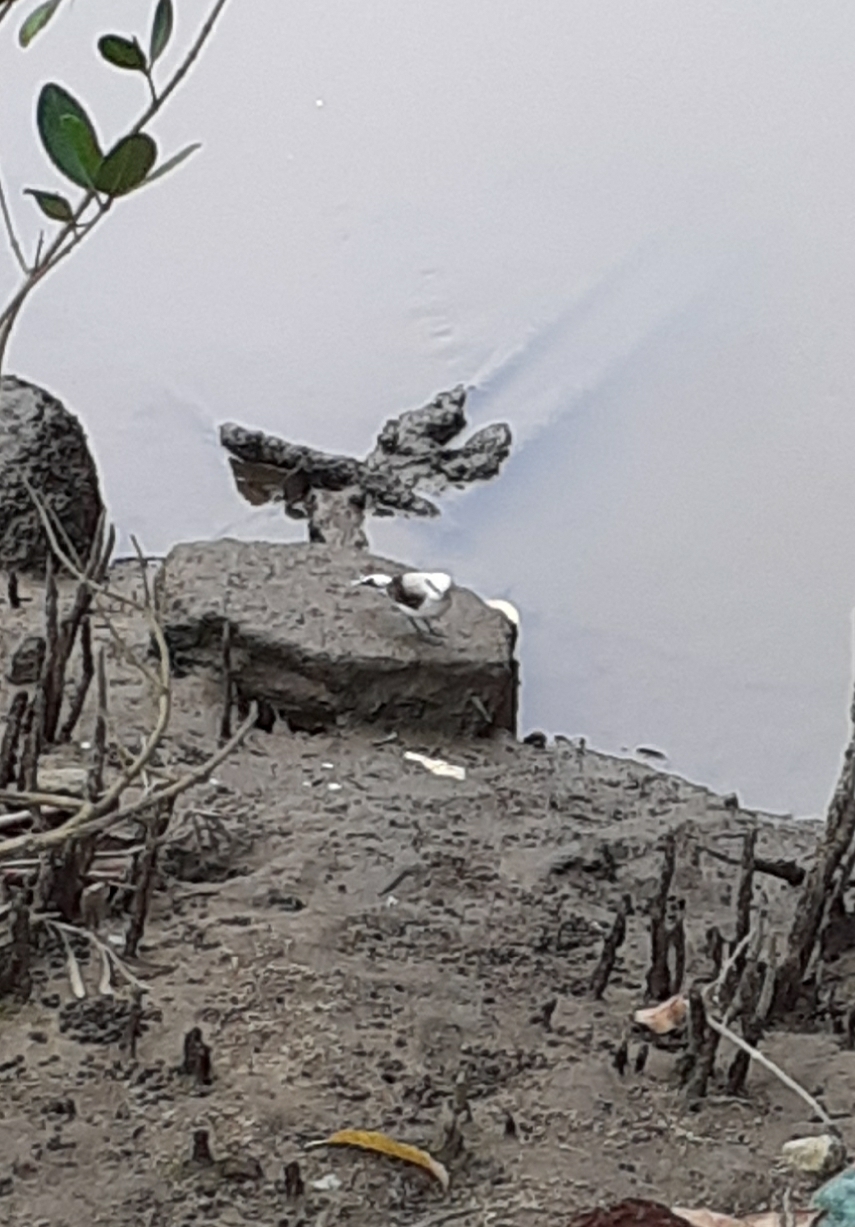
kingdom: Animalia
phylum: Chordata
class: Aves
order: Passeriformes
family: Tyrannidae
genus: Fluvicola
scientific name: Fluvicola nengeta
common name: Masked water tyrant
